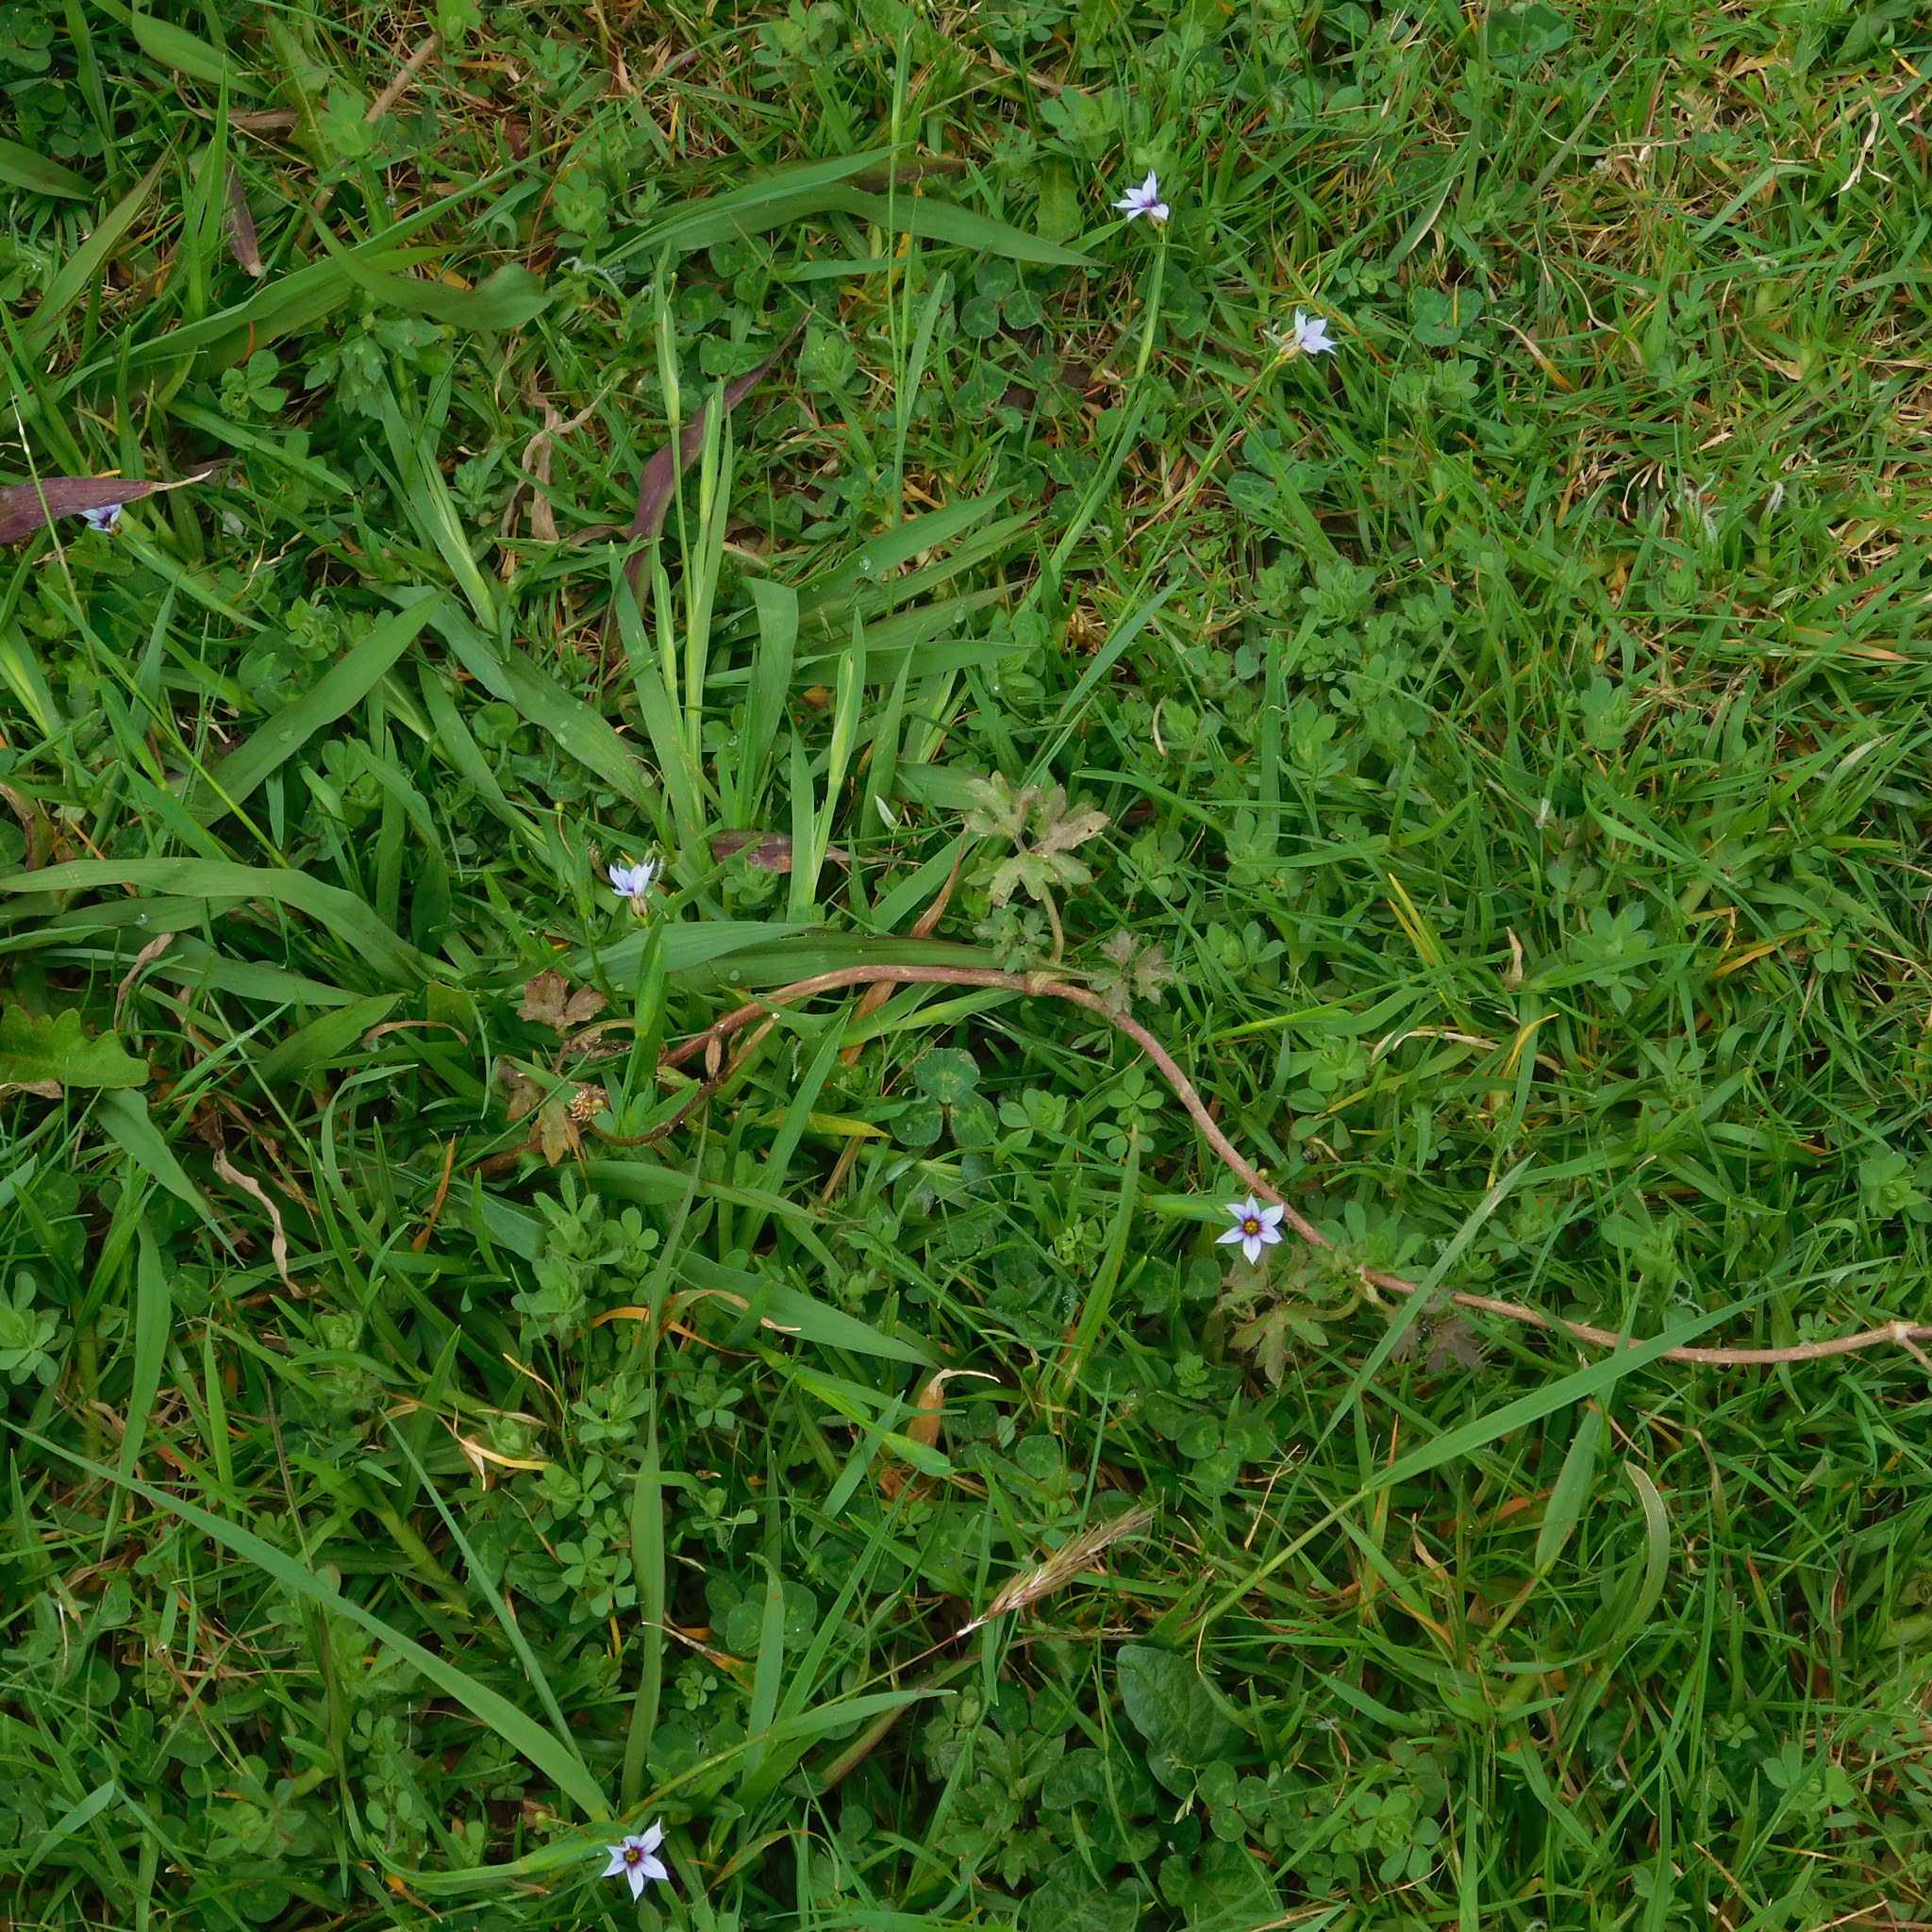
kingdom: Plantae
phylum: Tracheophyta
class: Liliopsida
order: Asparagales
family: Iridaceae
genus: Sisyrinchium
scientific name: Sisyrinchium micranthum
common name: Bermuda pigroot
